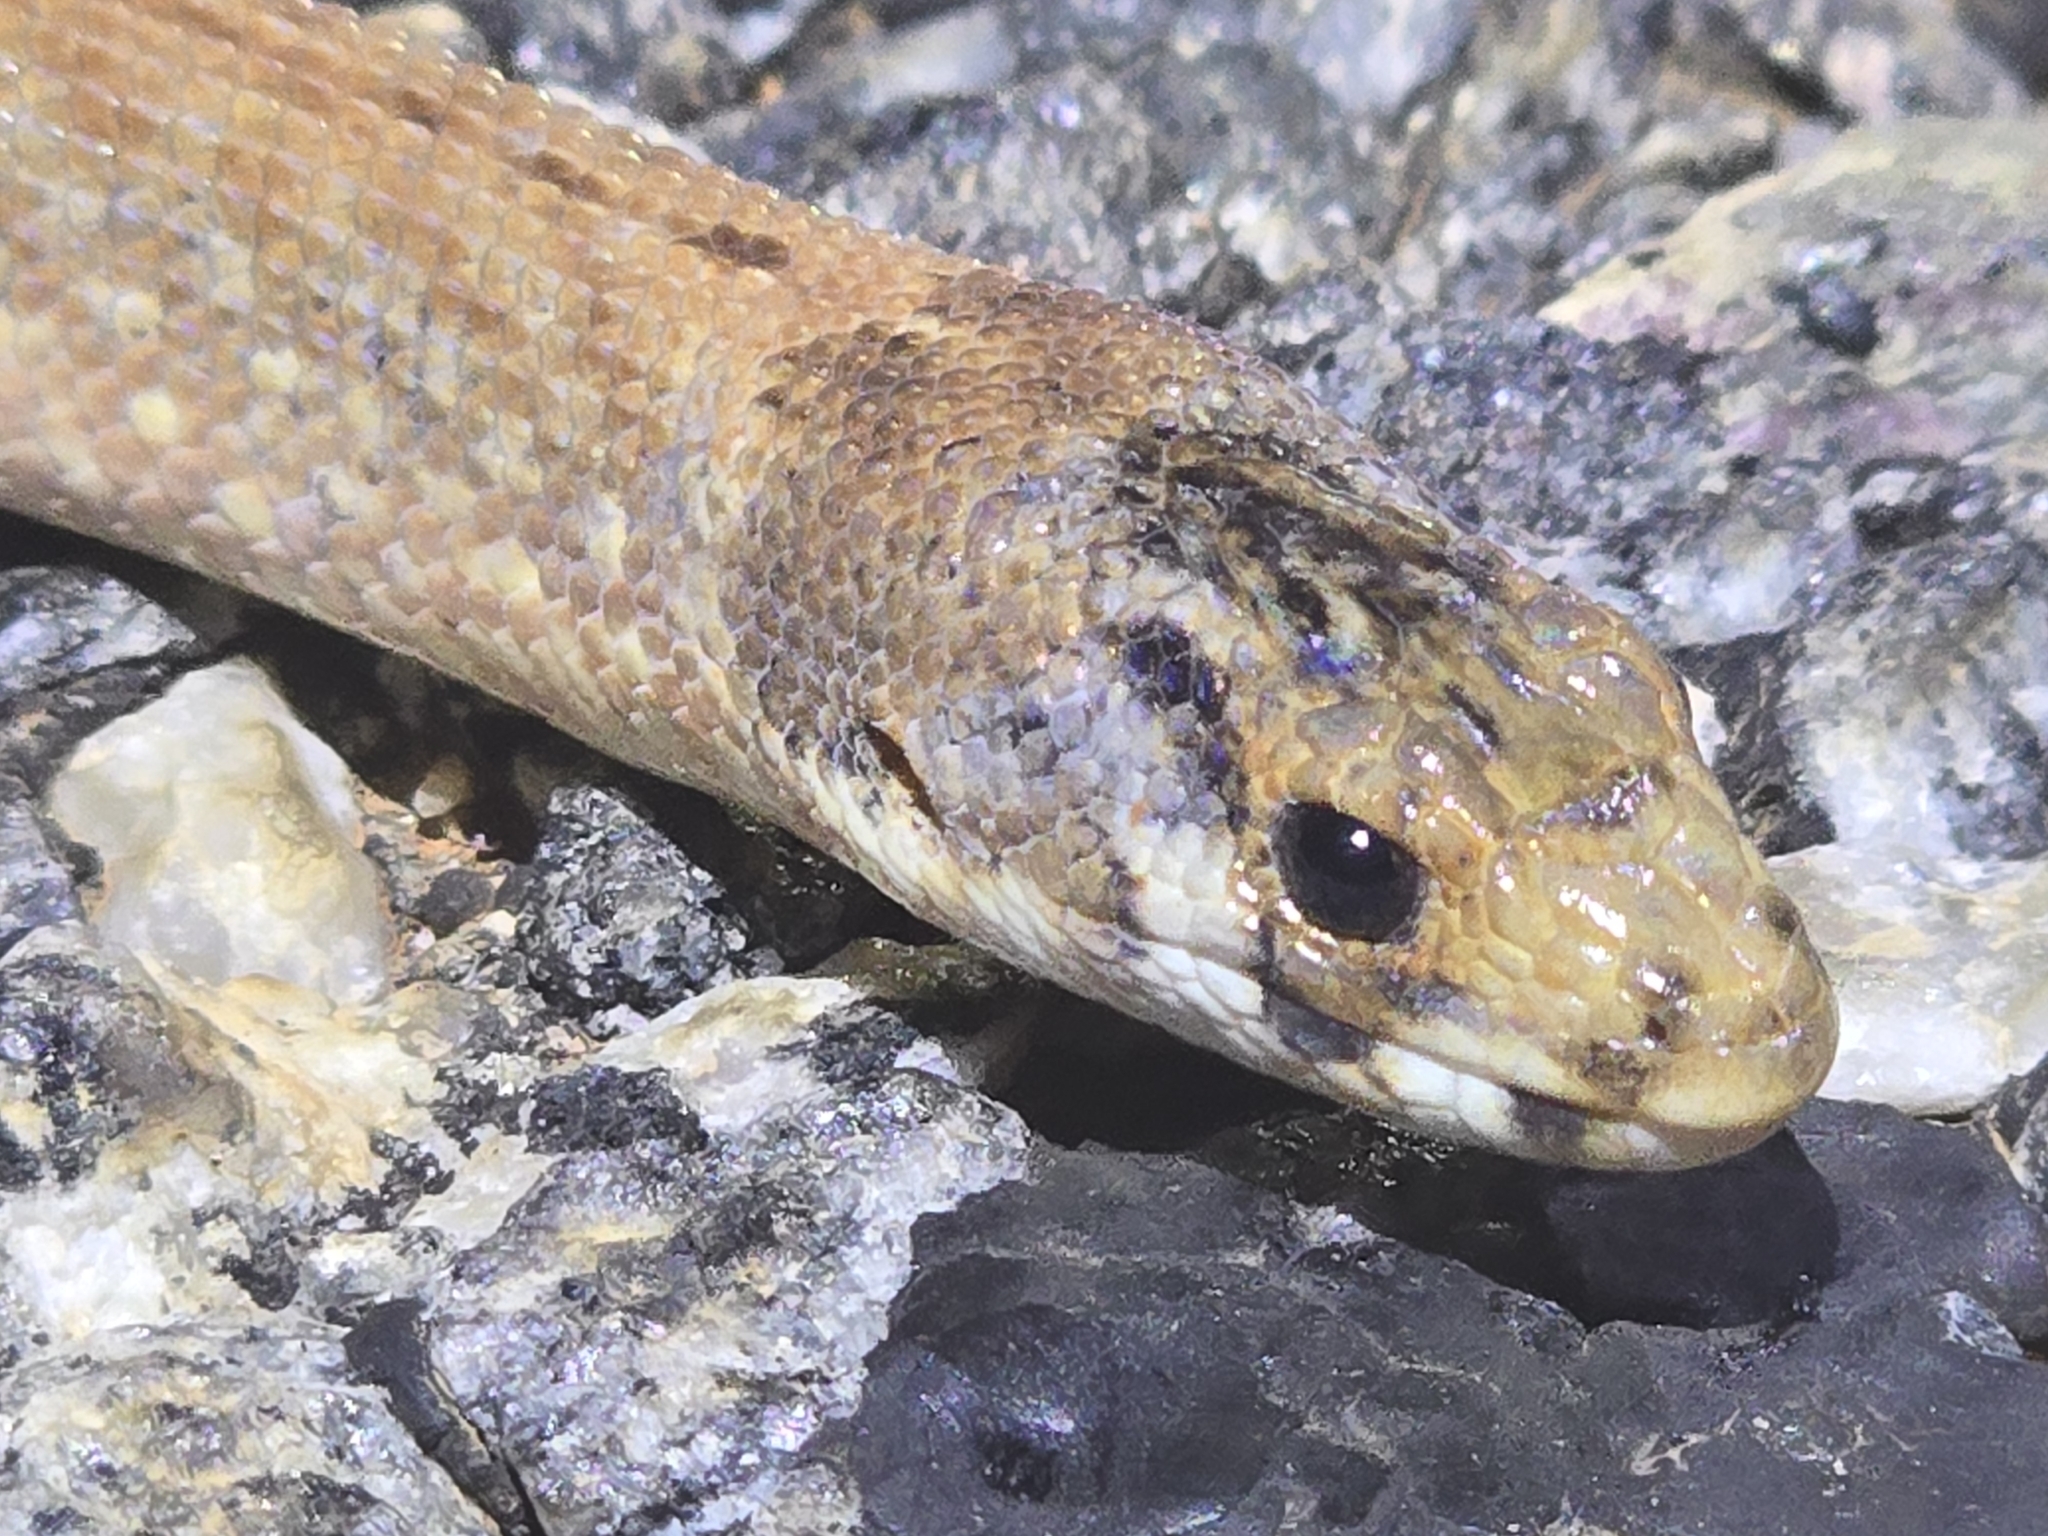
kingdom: Animalia
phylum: Chordata
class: Squamata
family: Pygopodidae
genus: Pygopus
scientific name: Pygopus schraderi
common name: Eastern scaly-foot
